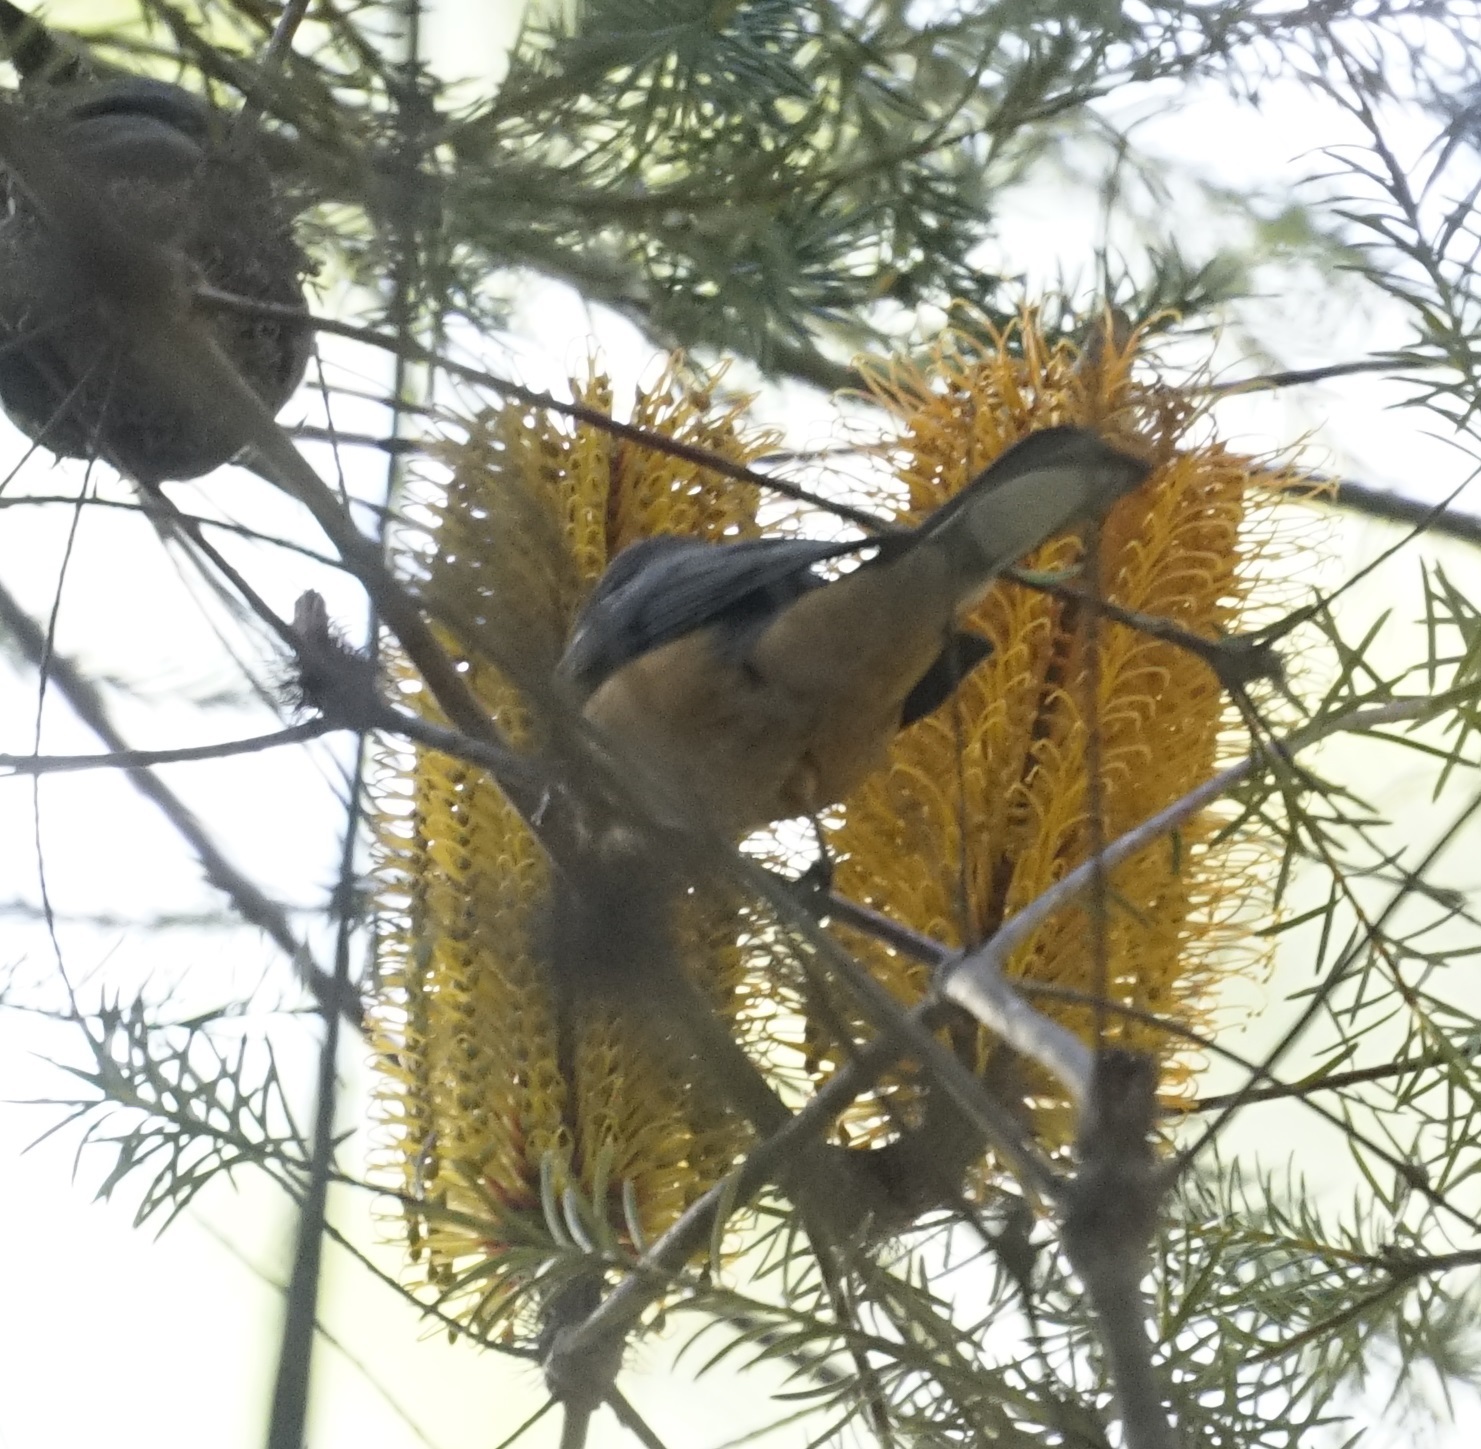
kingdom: Animalia
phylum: Chordata
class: Aves
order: Passeriformes
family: Meliphagidae
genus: Acanthorhynchus
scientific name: Acanthorhynchus tenuirostris
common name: Eastern spinebill
